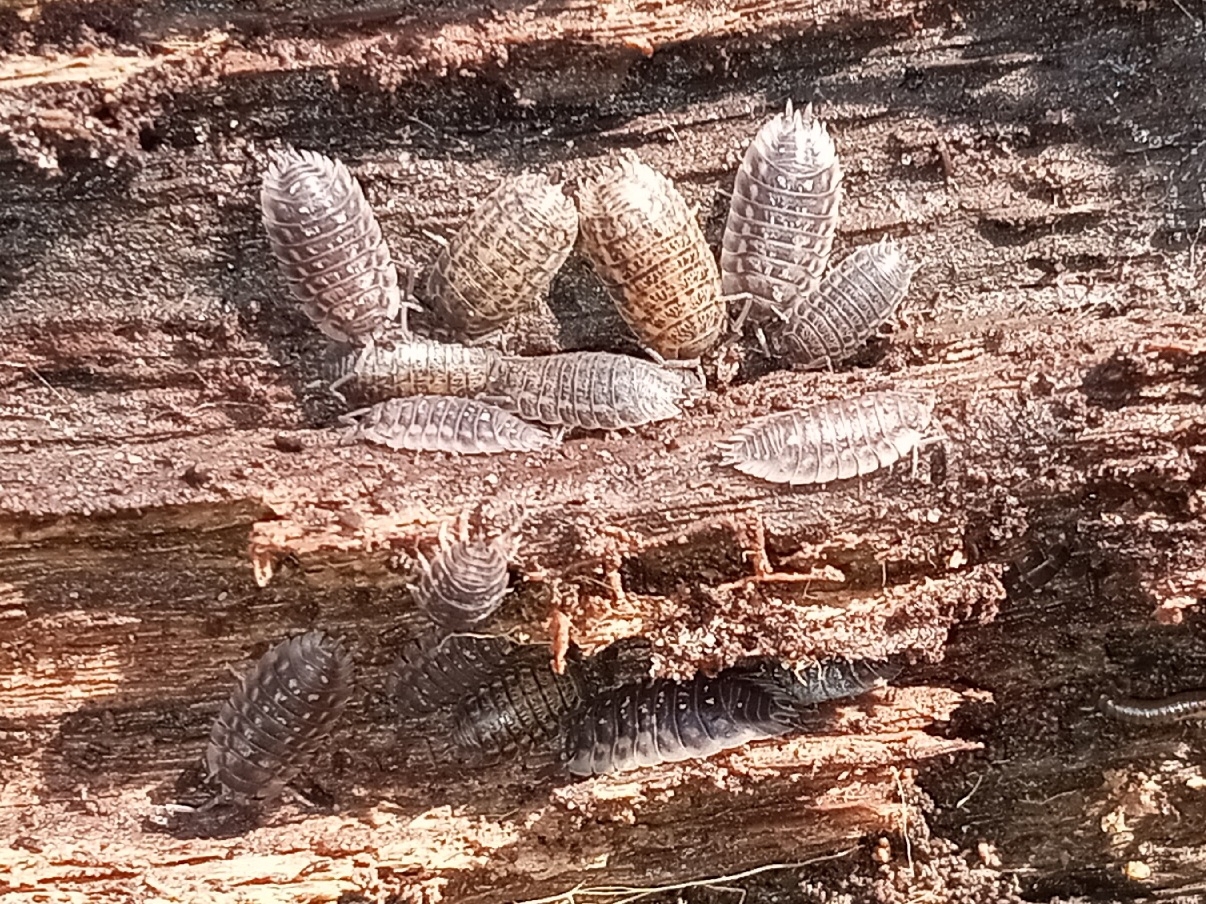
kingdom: Animalia
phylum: Arthropoda
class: Malacostraca
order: Isopoda
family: Trachelipodidae
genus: Trachelipus
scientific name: Trachelipus rathkii
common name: Isopod
